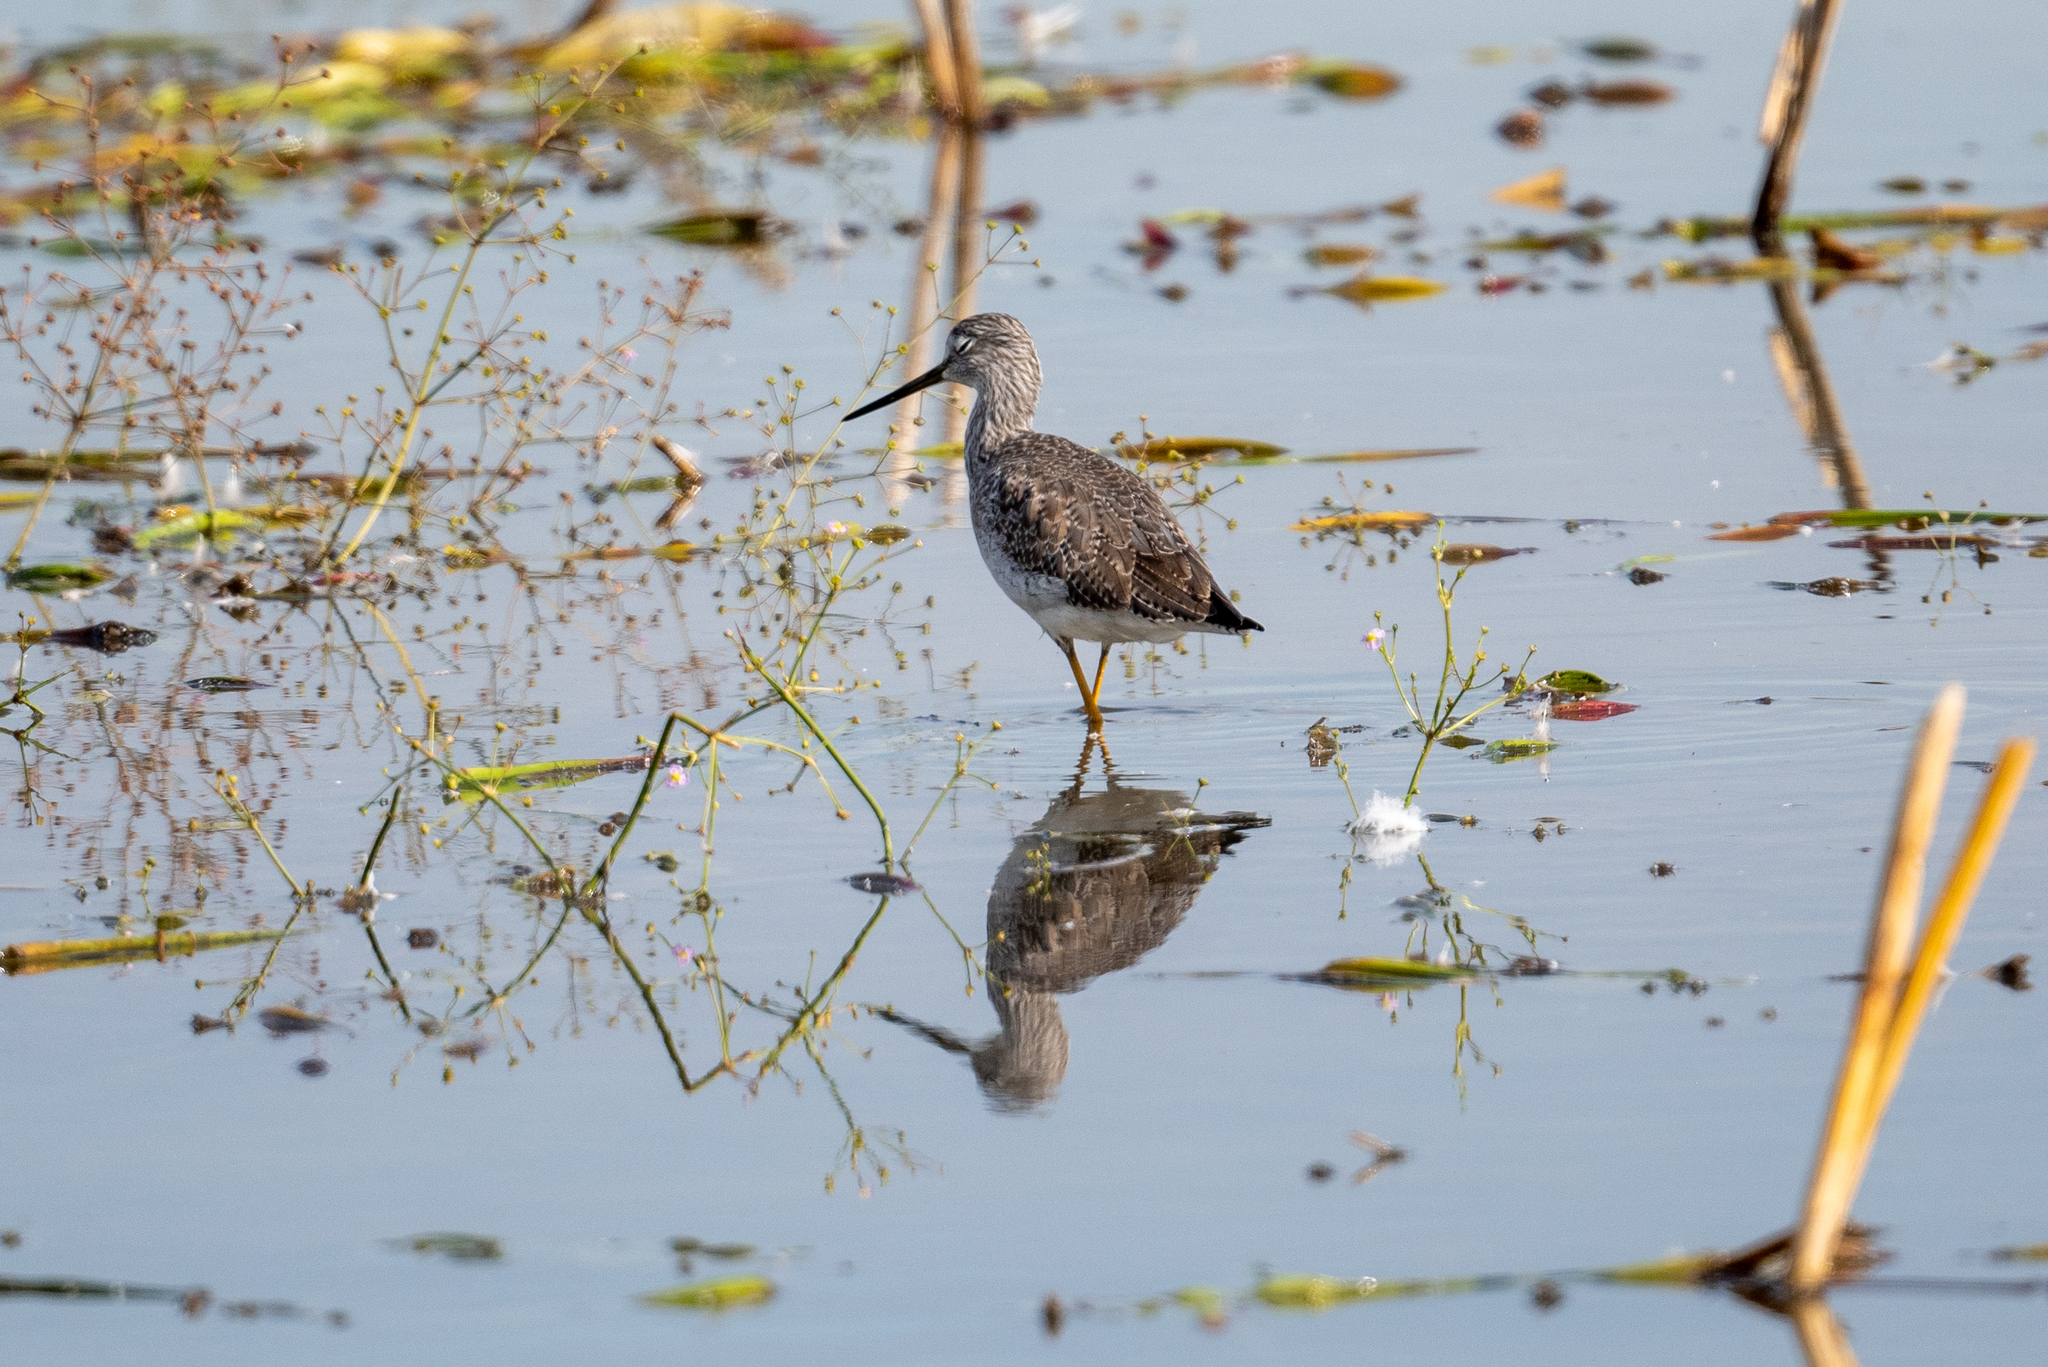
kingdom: Animalia
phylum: Chordata
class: Aves
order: Charadriiformes
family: Scolopacidae
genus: Tringa
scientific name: Tringa melanoleuca
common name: Greater yellowlegs
